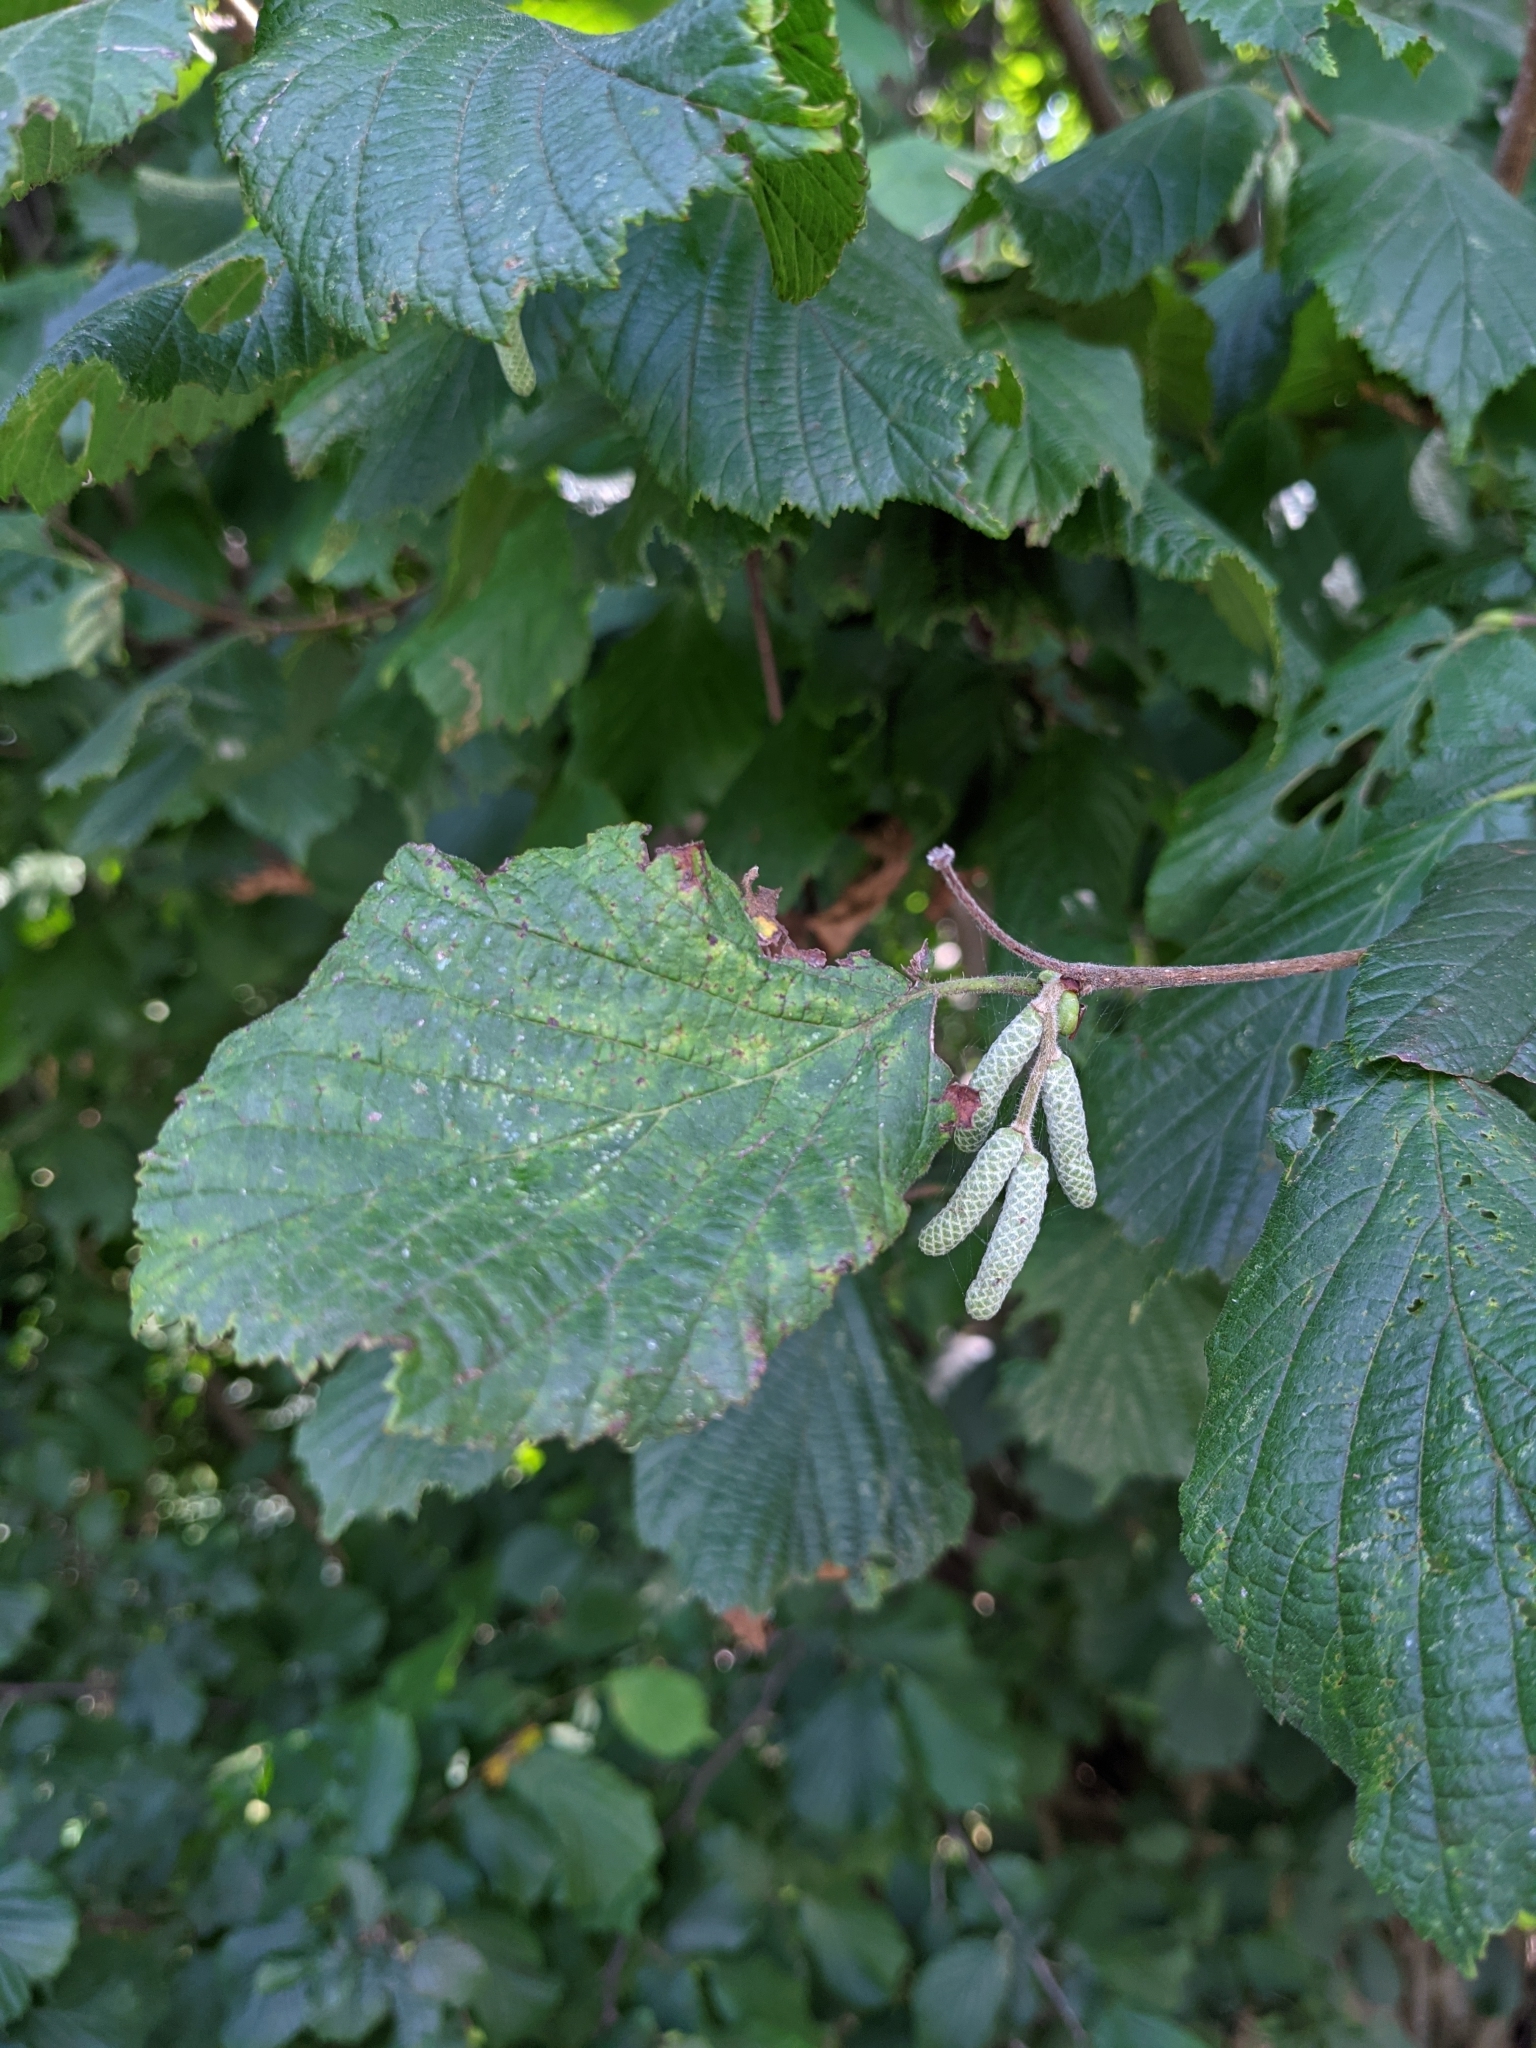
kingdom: Plantae
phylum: Tracheophyta
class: Magnoliopsida
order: Fagales
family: Betulaceae
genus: Corylus
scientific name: Corylus avellana
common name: European hazel
